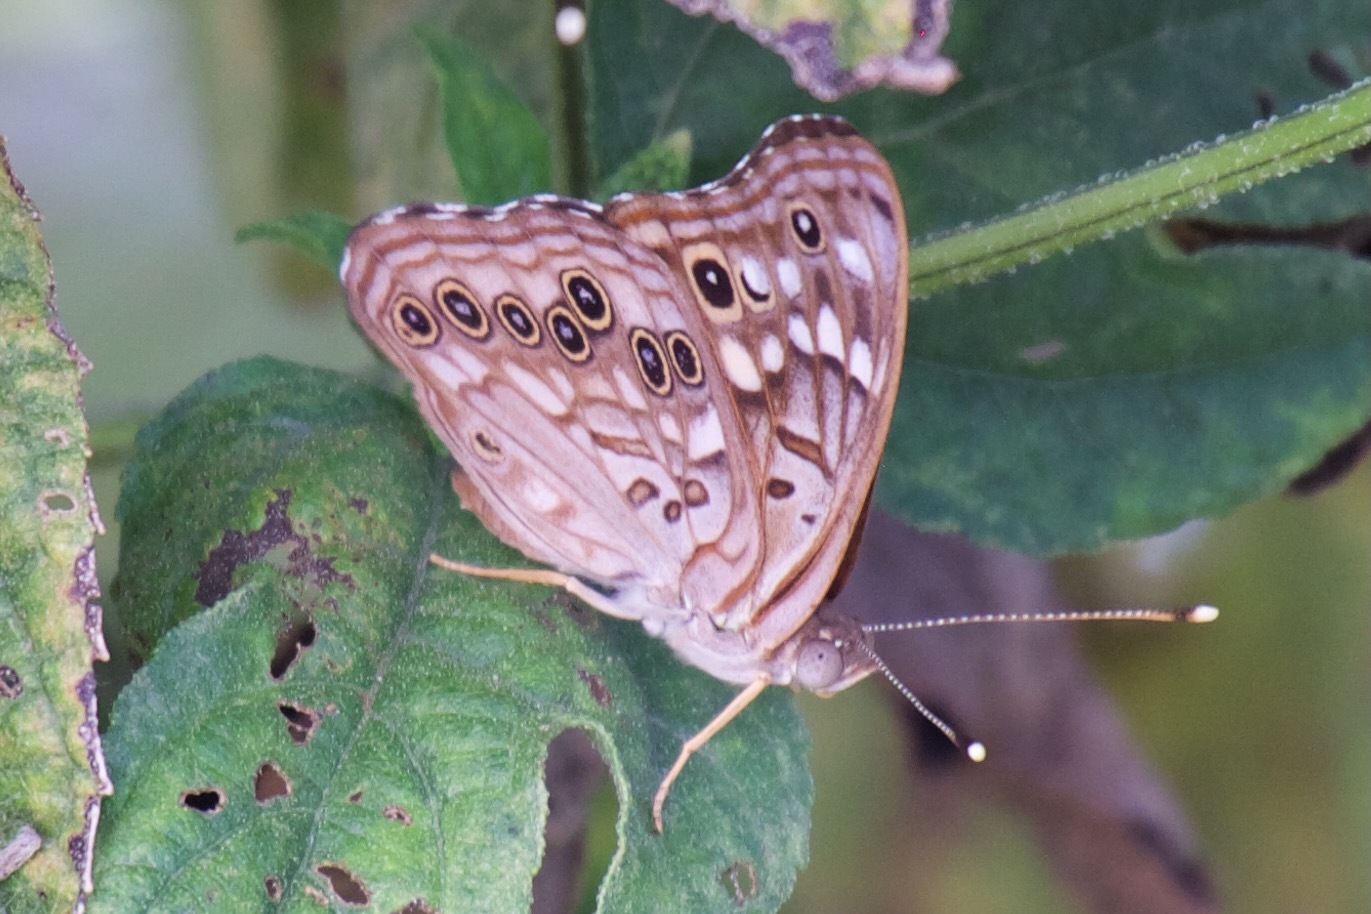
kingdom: Animalia
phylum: Arthropoda
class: Insecta
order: Lepidoptera
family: Nymphalidae
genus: Asterocampa
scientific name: Asterocampa celtis
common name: Hackberry emperor
